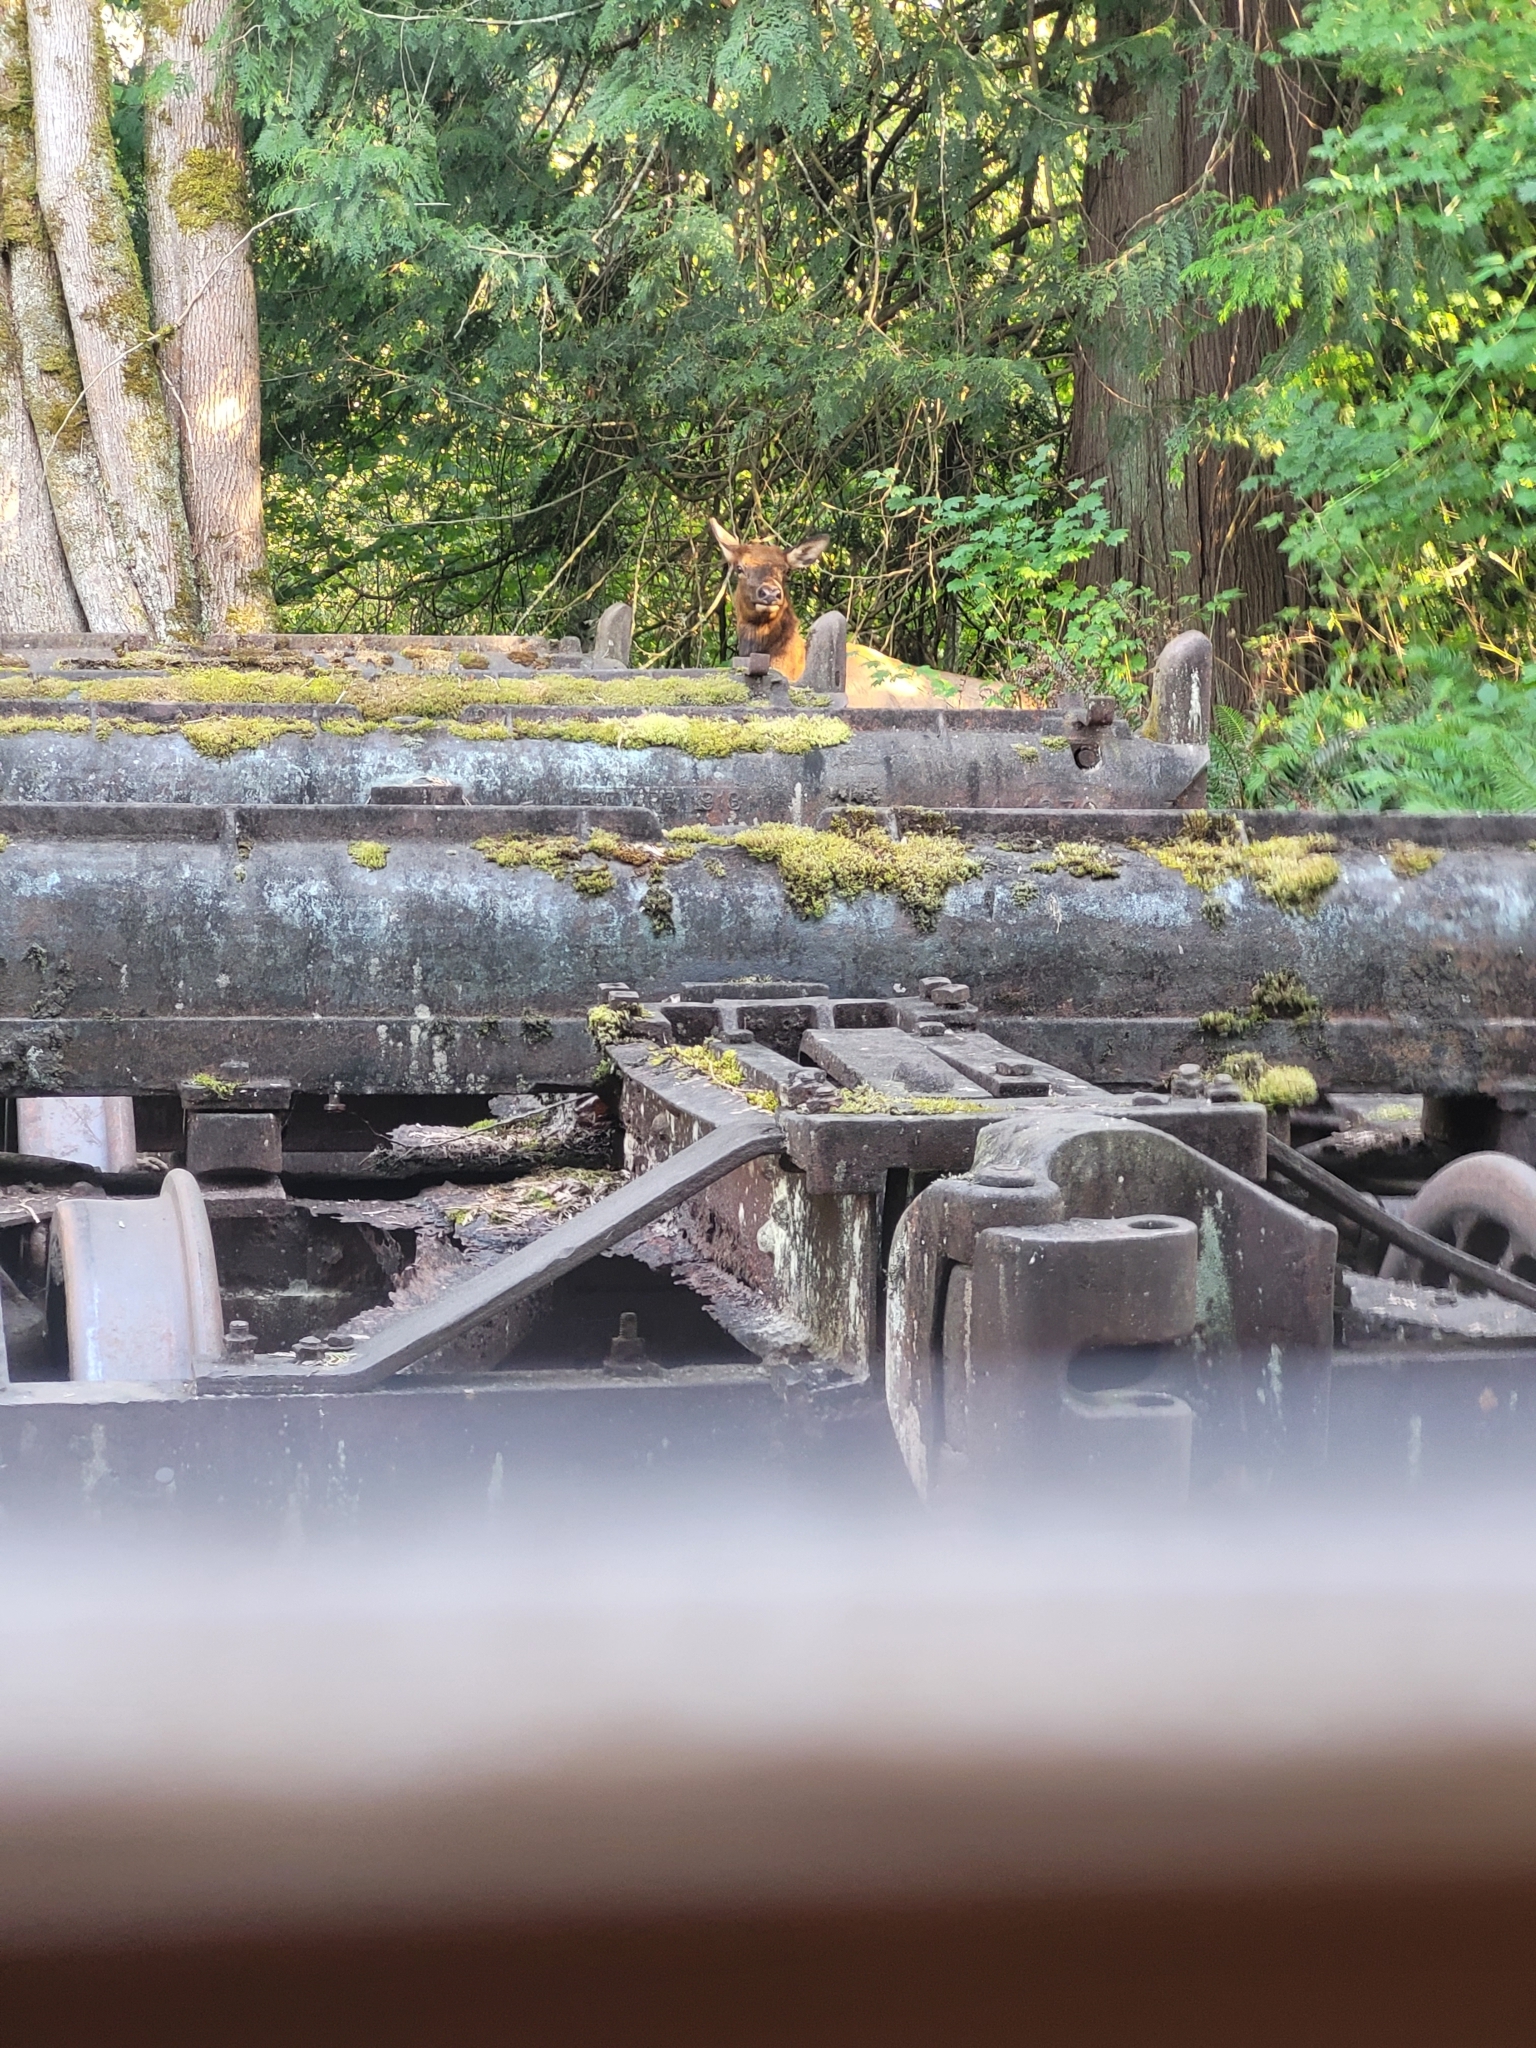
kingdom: Animalia
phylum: Chordata
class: Mammalia
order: Artiodactyla
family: Cervidae
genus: Cervus
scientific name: Cervus elaphus
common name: Red deer
